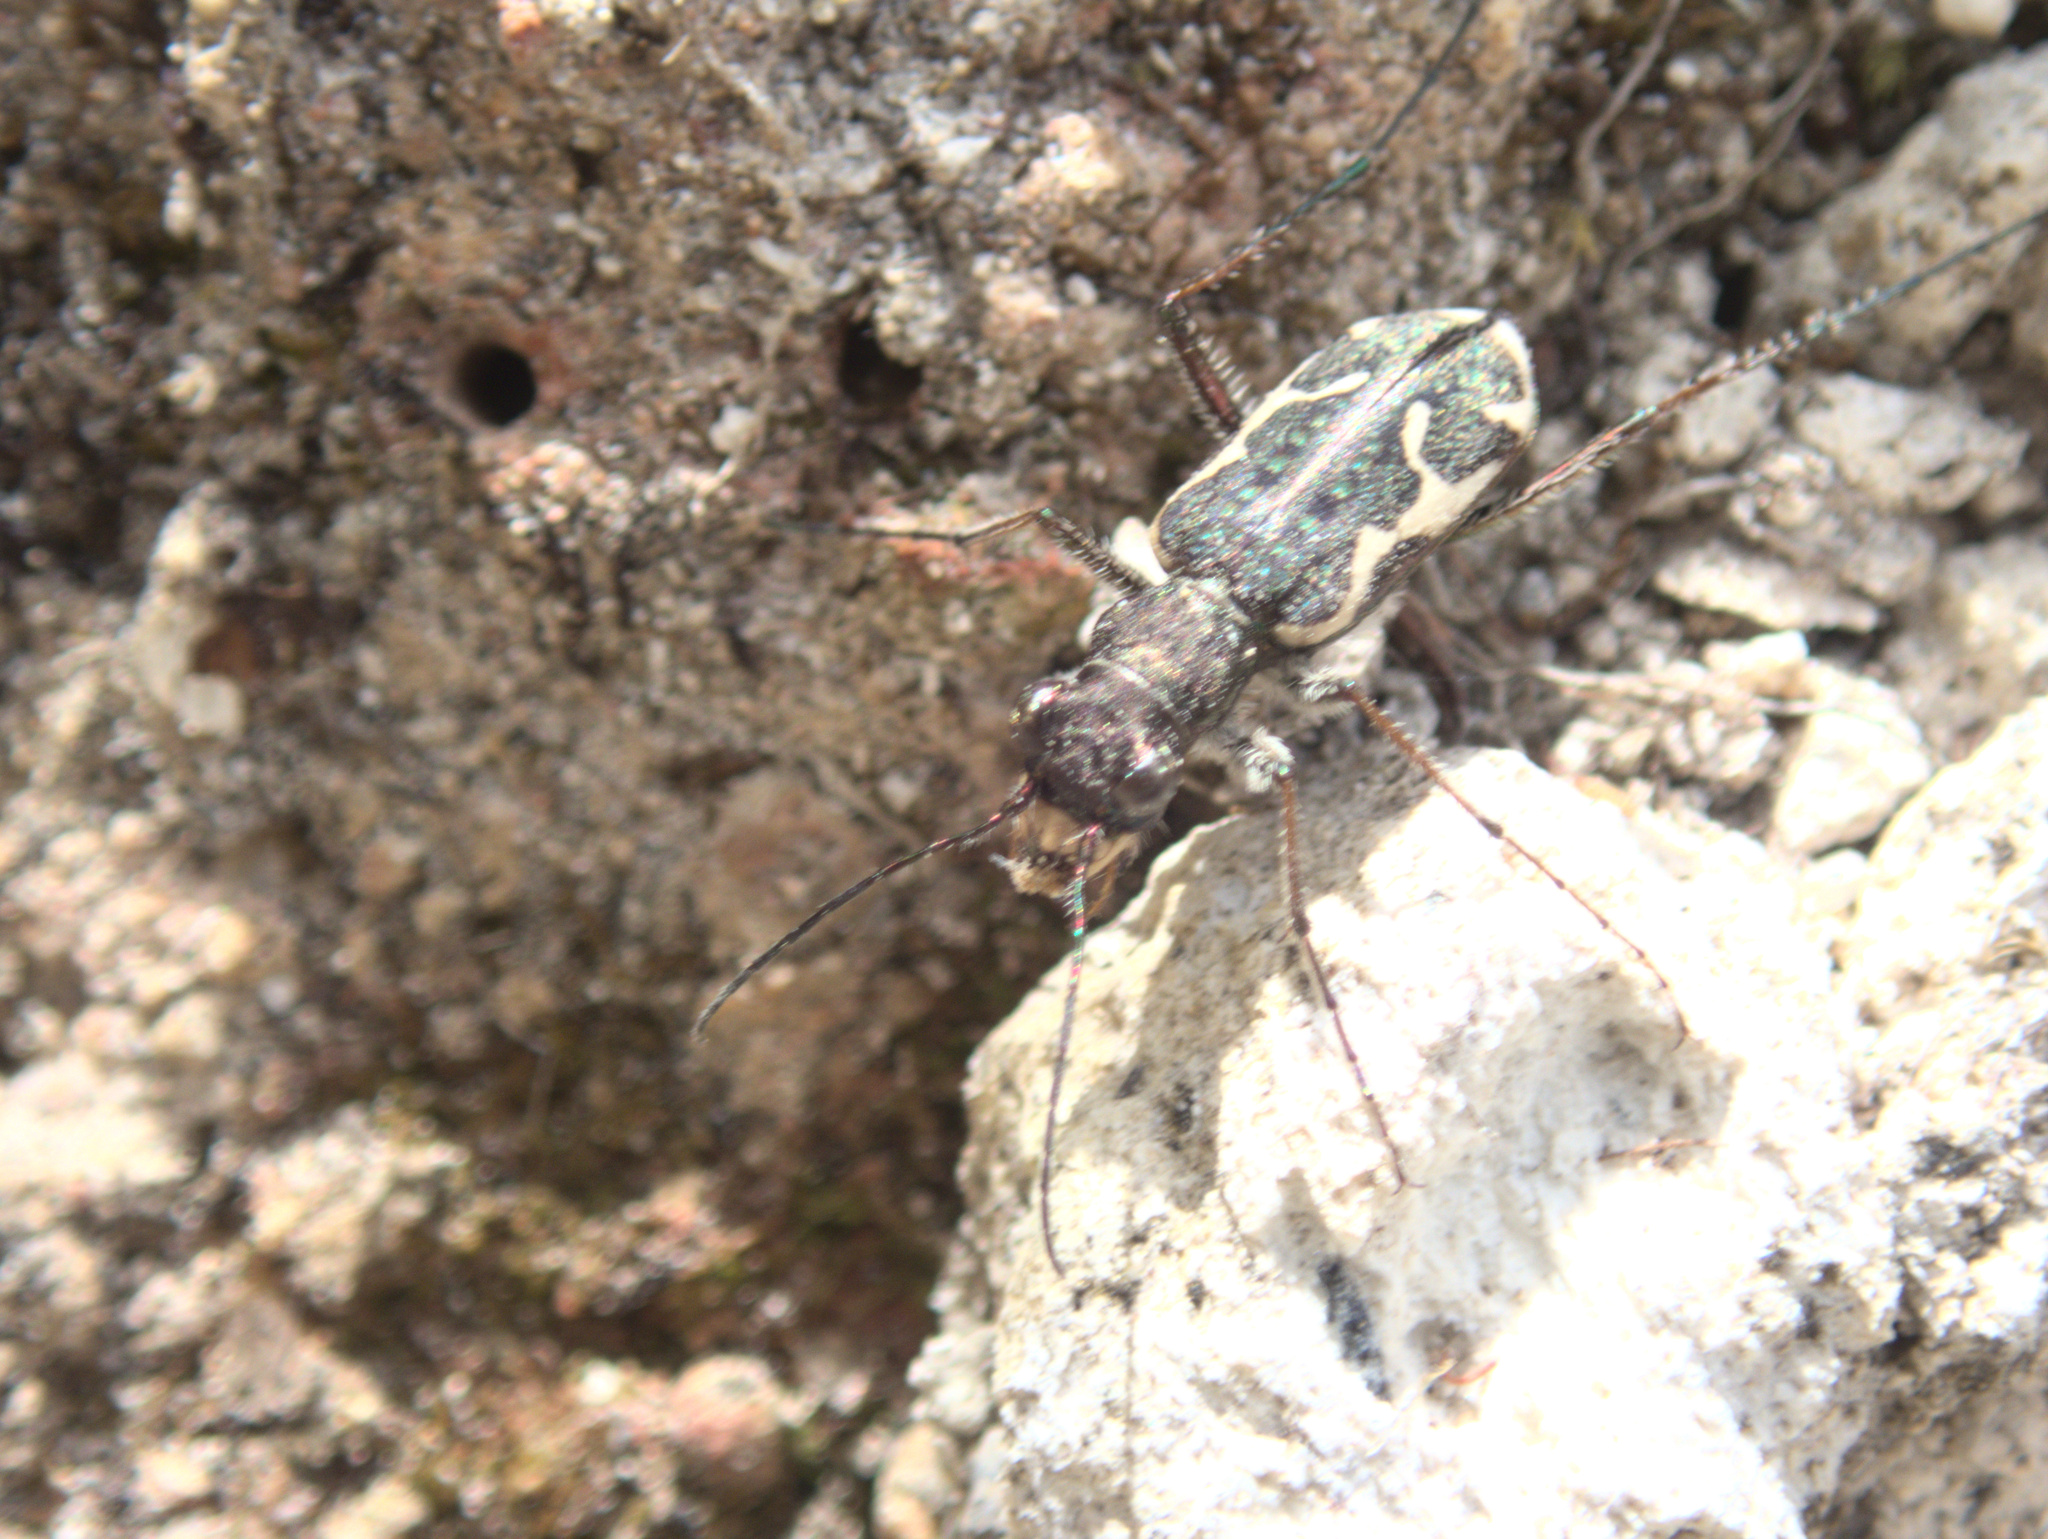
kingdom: Animalia
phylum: Arthropoda
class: Insecta
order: Coleoptera
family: Carabidae
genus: Neocicindela
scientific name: Neocicindela tuberculata
